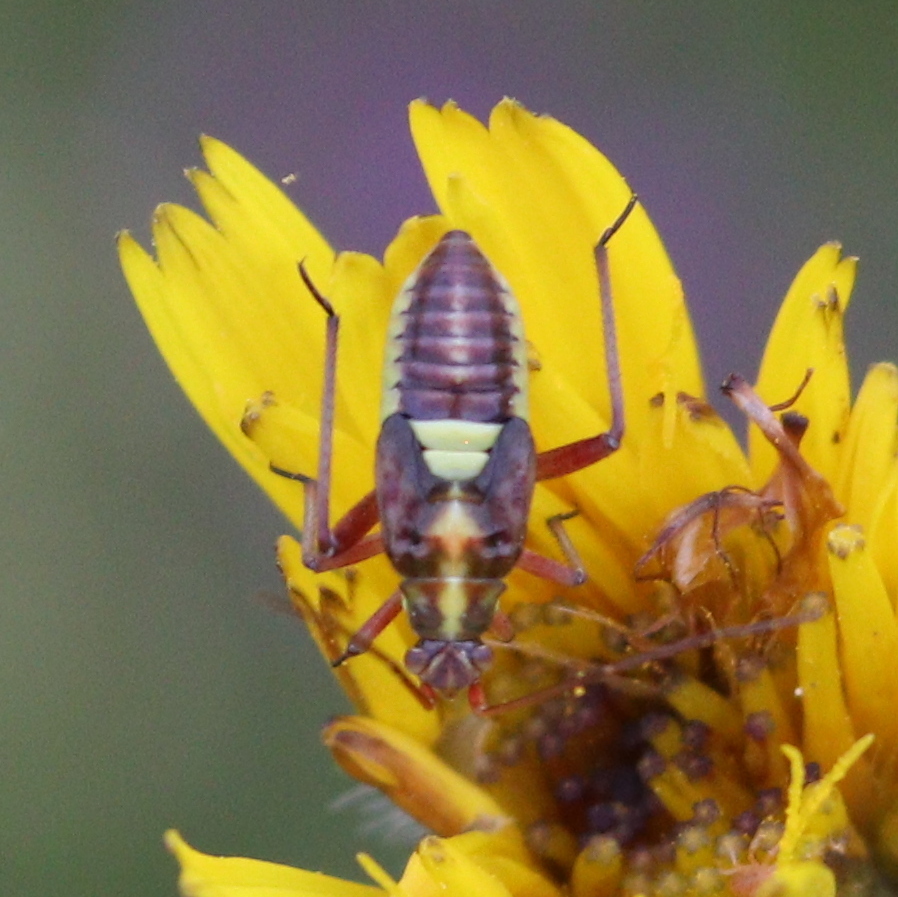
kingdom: Animalia
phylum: Arthropoda
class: Insecta
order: Hemiptera
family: Miridae
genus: Calocoris
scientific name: Calocoris roseomaculatus
